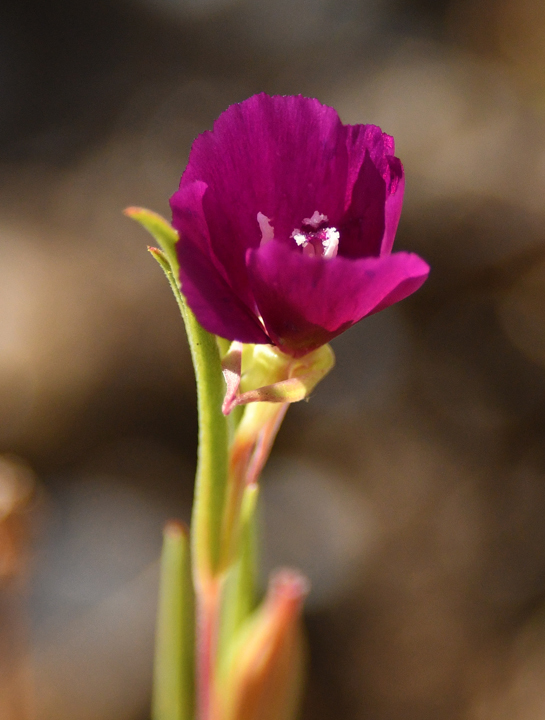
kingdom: Plantae
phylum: Tracheophyta
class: Magnoliopsida
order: Myrtales
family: Onagraceae
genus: Clarkia
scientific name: Clarkia purpurea
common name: Purple clarkia
